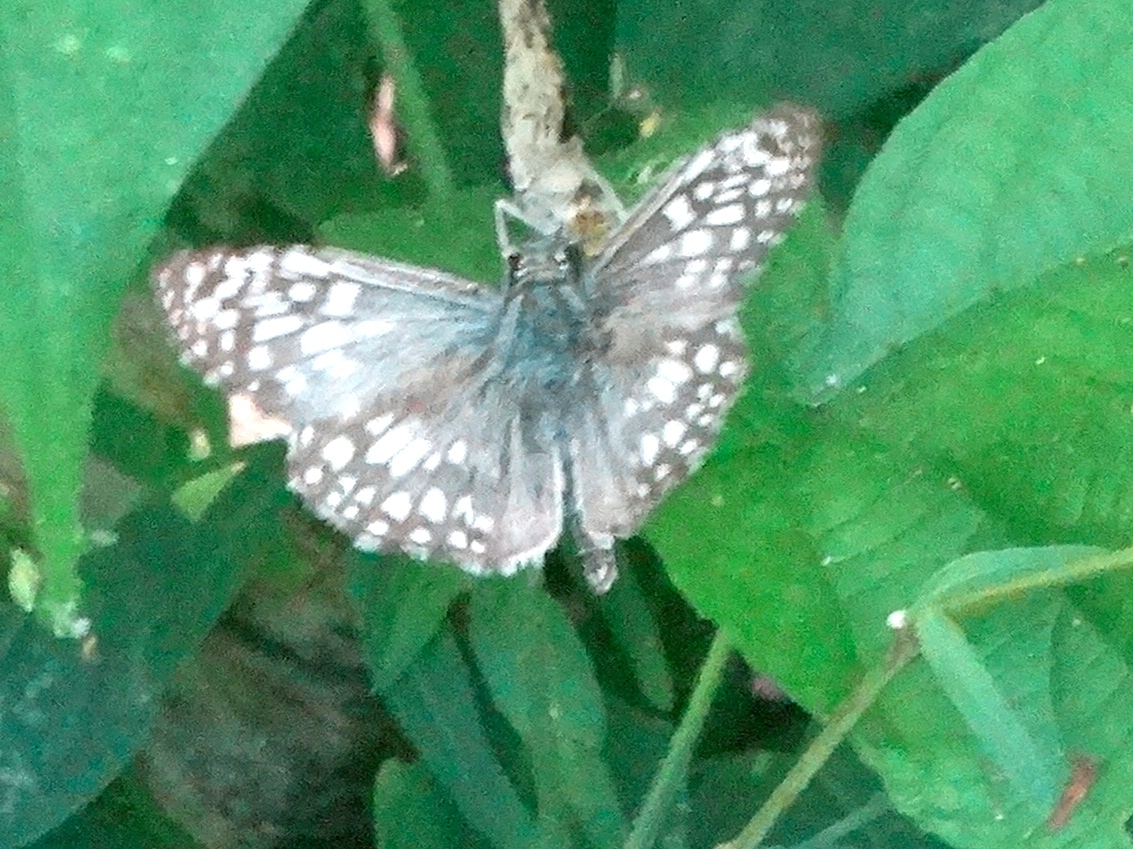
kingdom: Animalia
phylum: Arthropoda
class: Insecta
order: Lepidoptera
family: Hesperiidae
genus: Burnsius
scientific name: Burnsius
